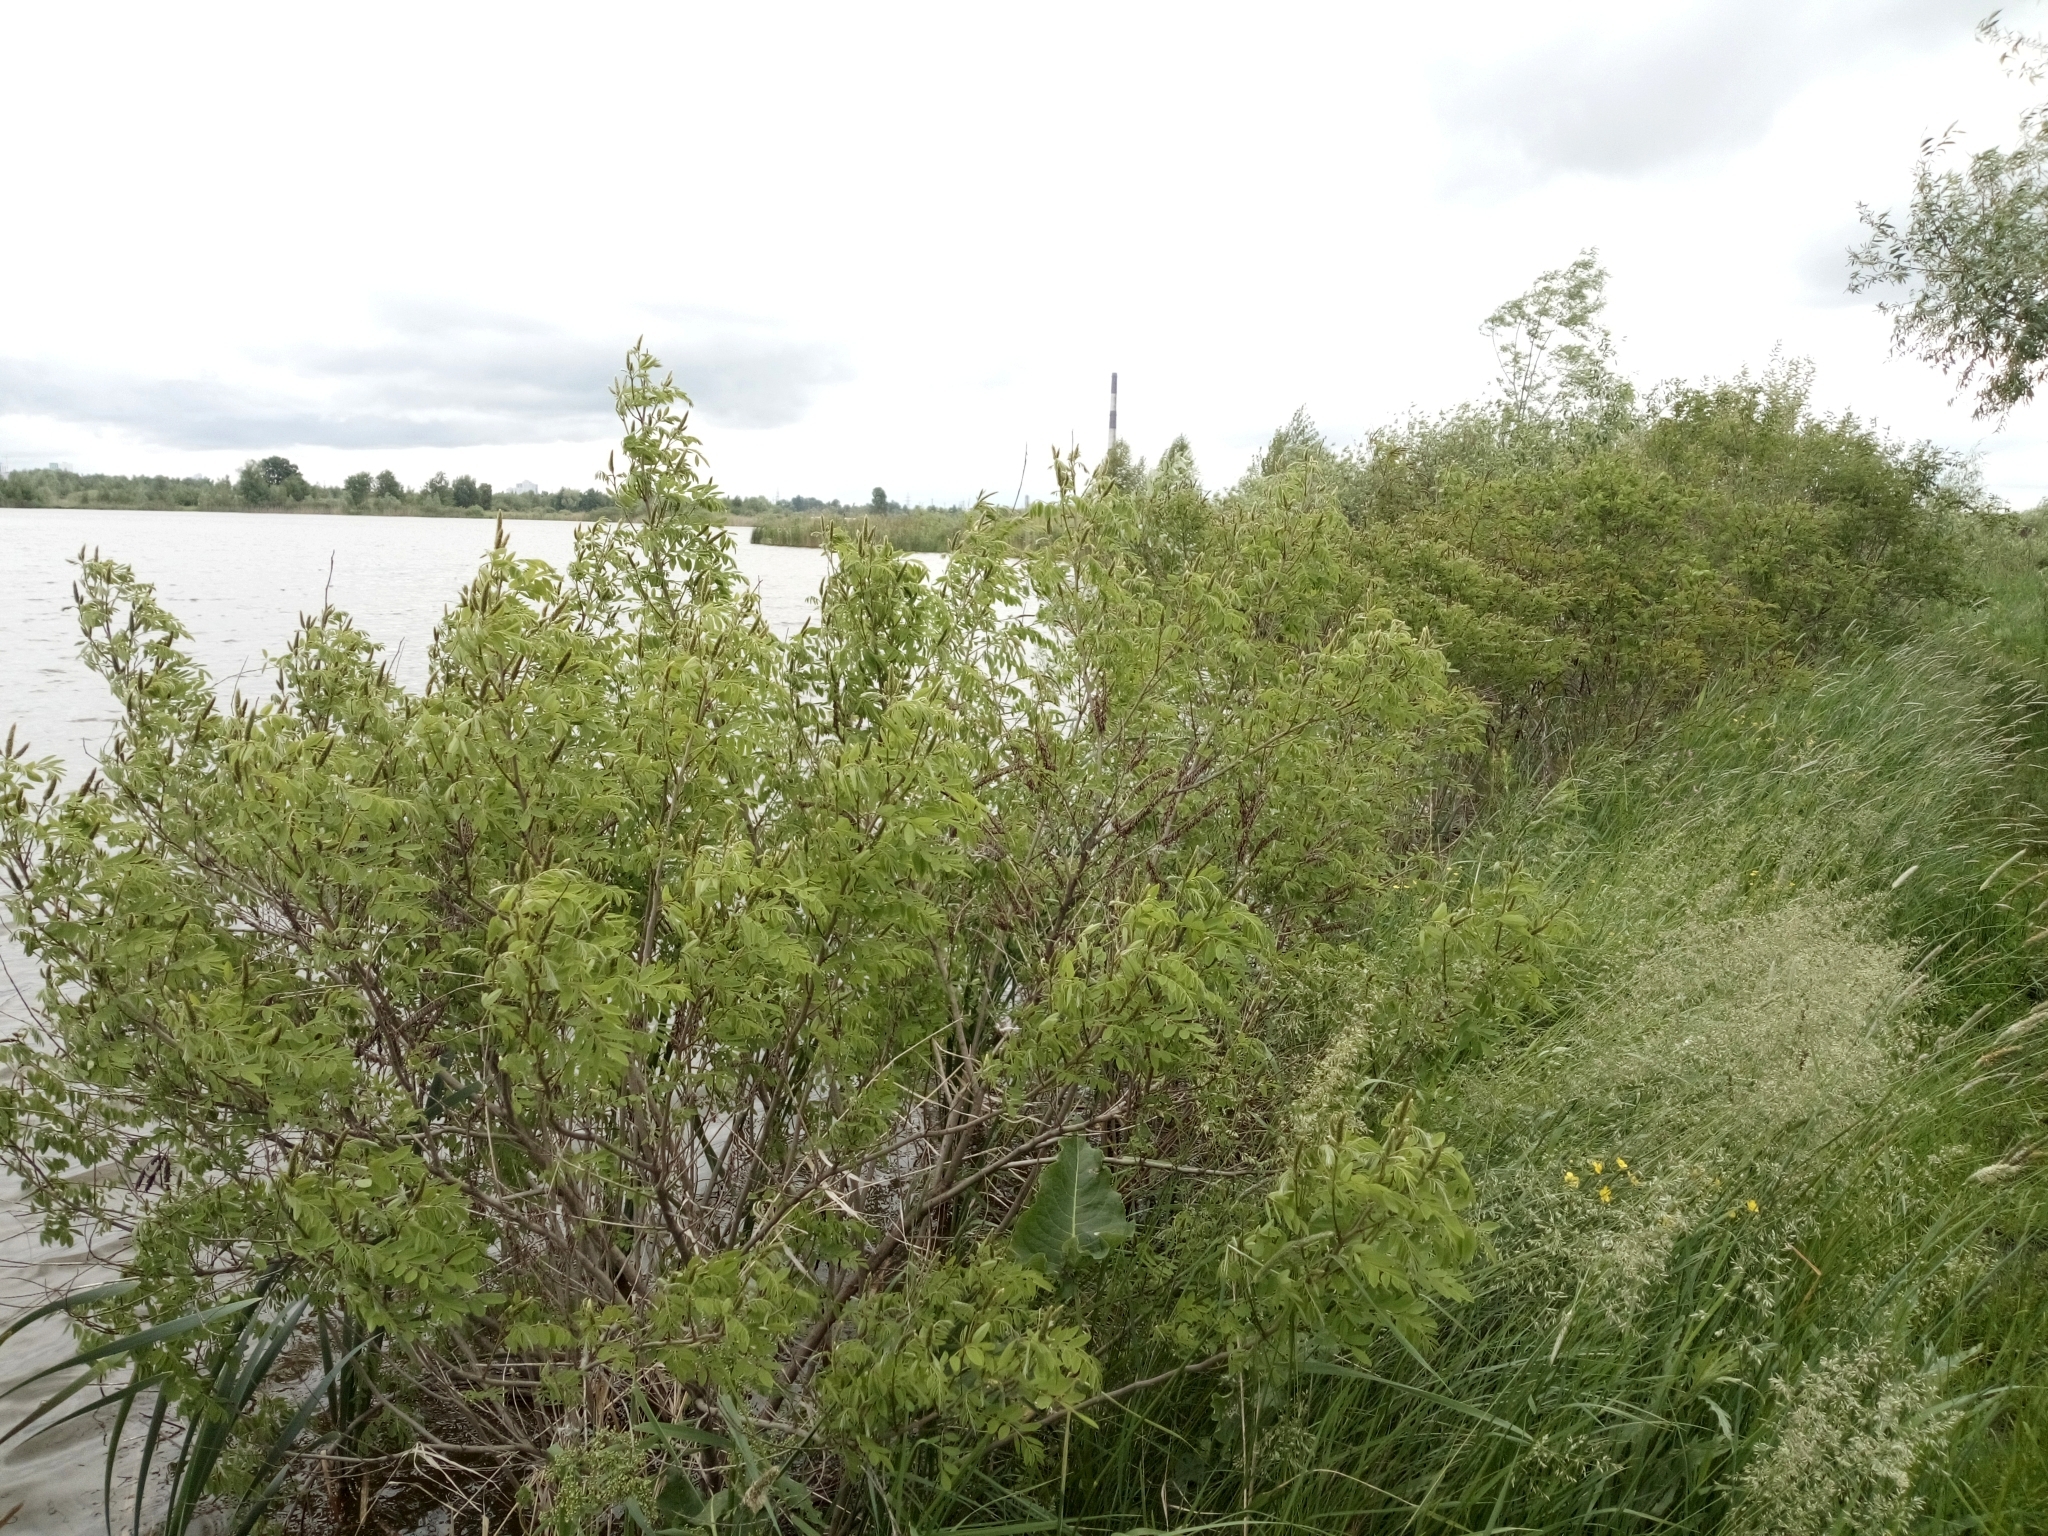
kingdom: Plantae
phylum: Tracheophyta
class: Magnoliopsida
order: Fabales
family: Fabaceae
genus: Amorpha
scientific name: Amorpha fruticosa
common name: False indigo
